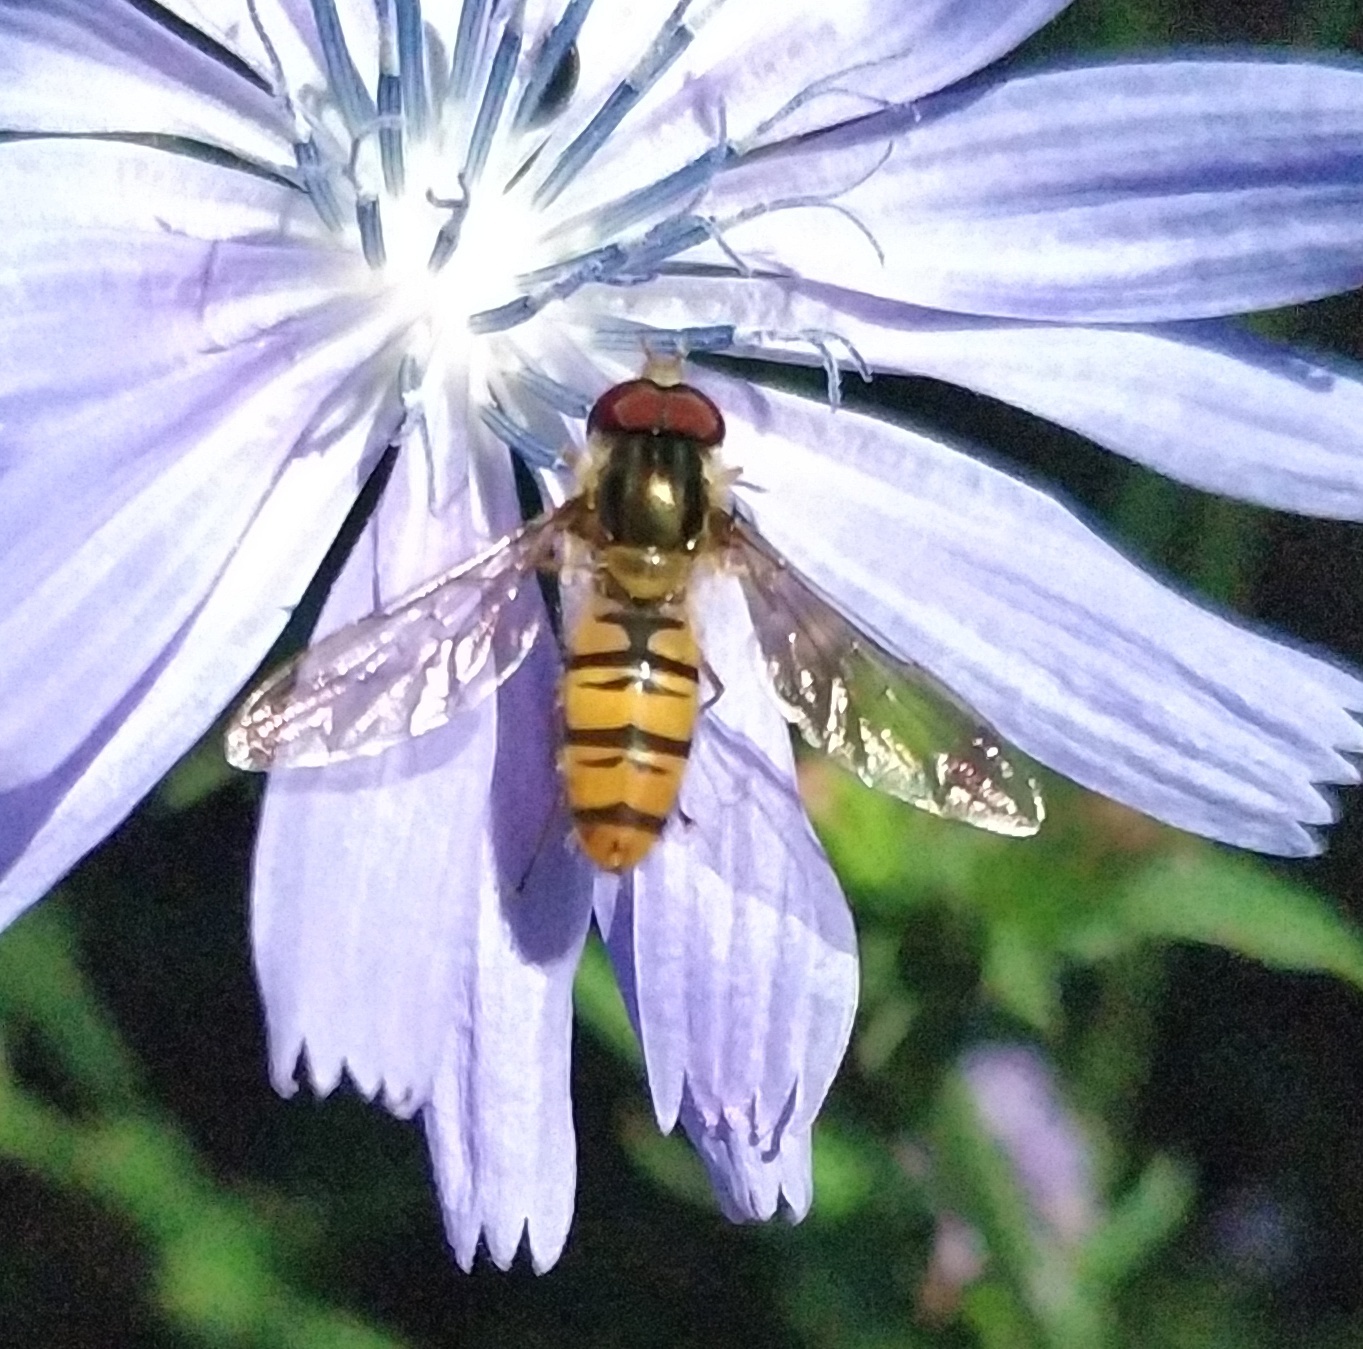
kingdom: Animalia
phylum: Arthropoda
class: Insecta
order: Diptera
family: Syrphidae
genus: Episyrphus
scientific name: Episyrphus balteatus
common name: Marmalade hoverfly
